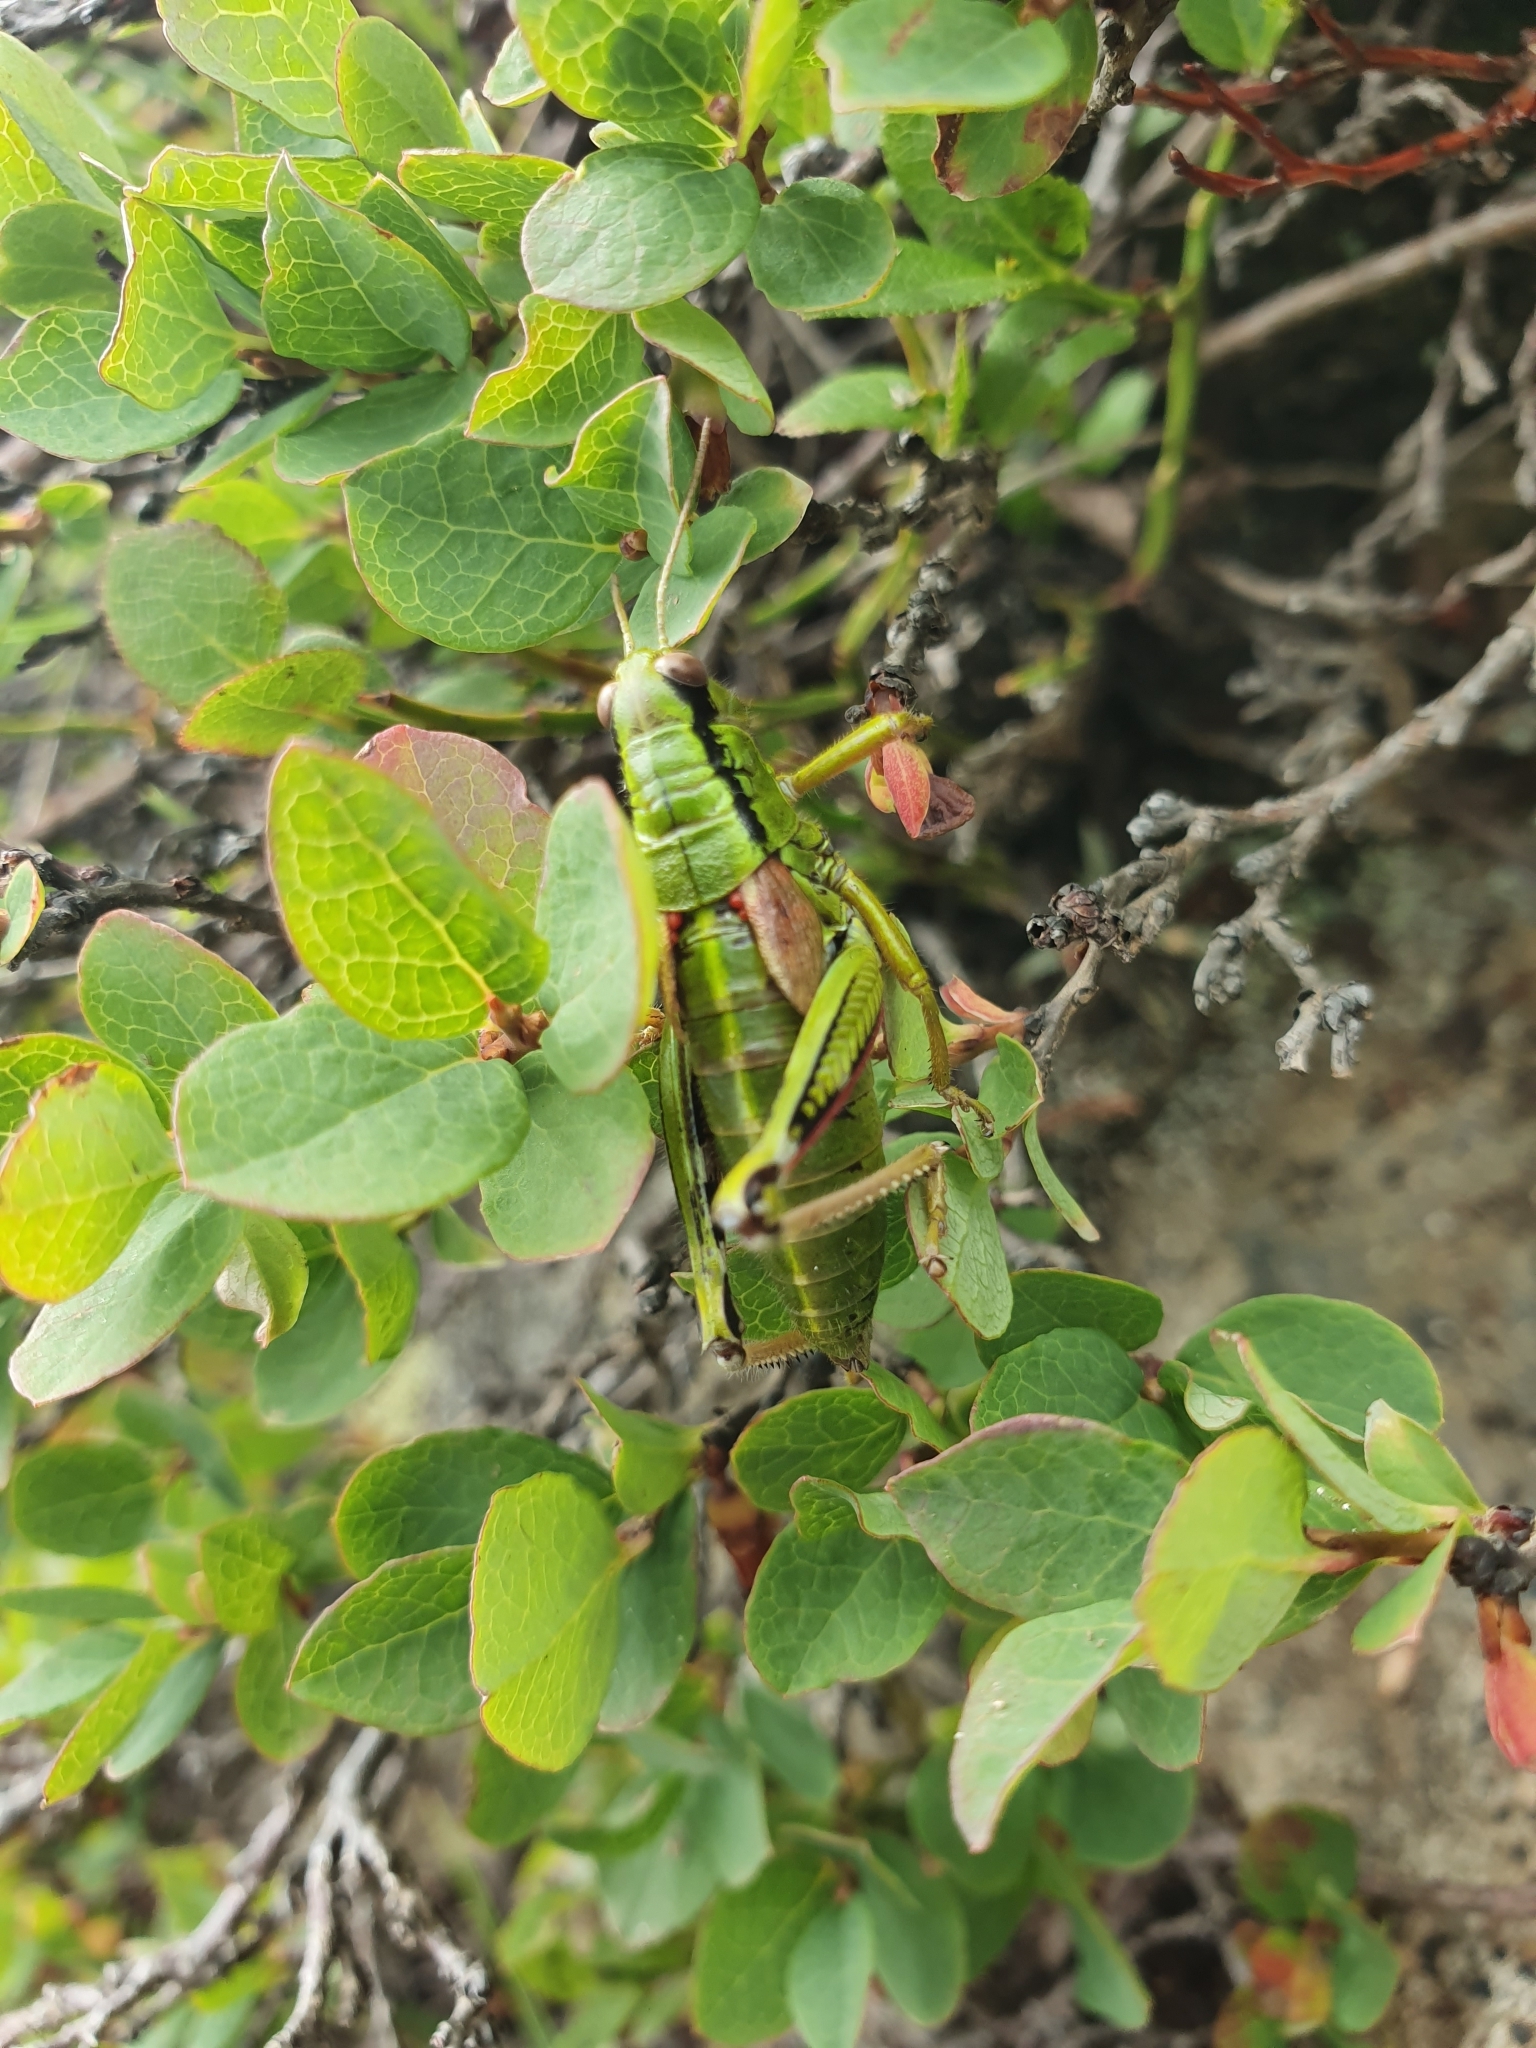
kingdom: Animalia
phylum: Arthropoda
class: Insecta
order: Orthoptera
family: Acrididae
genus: Miramella
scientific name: Miramella alpina
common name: Green mountain grasshopper
